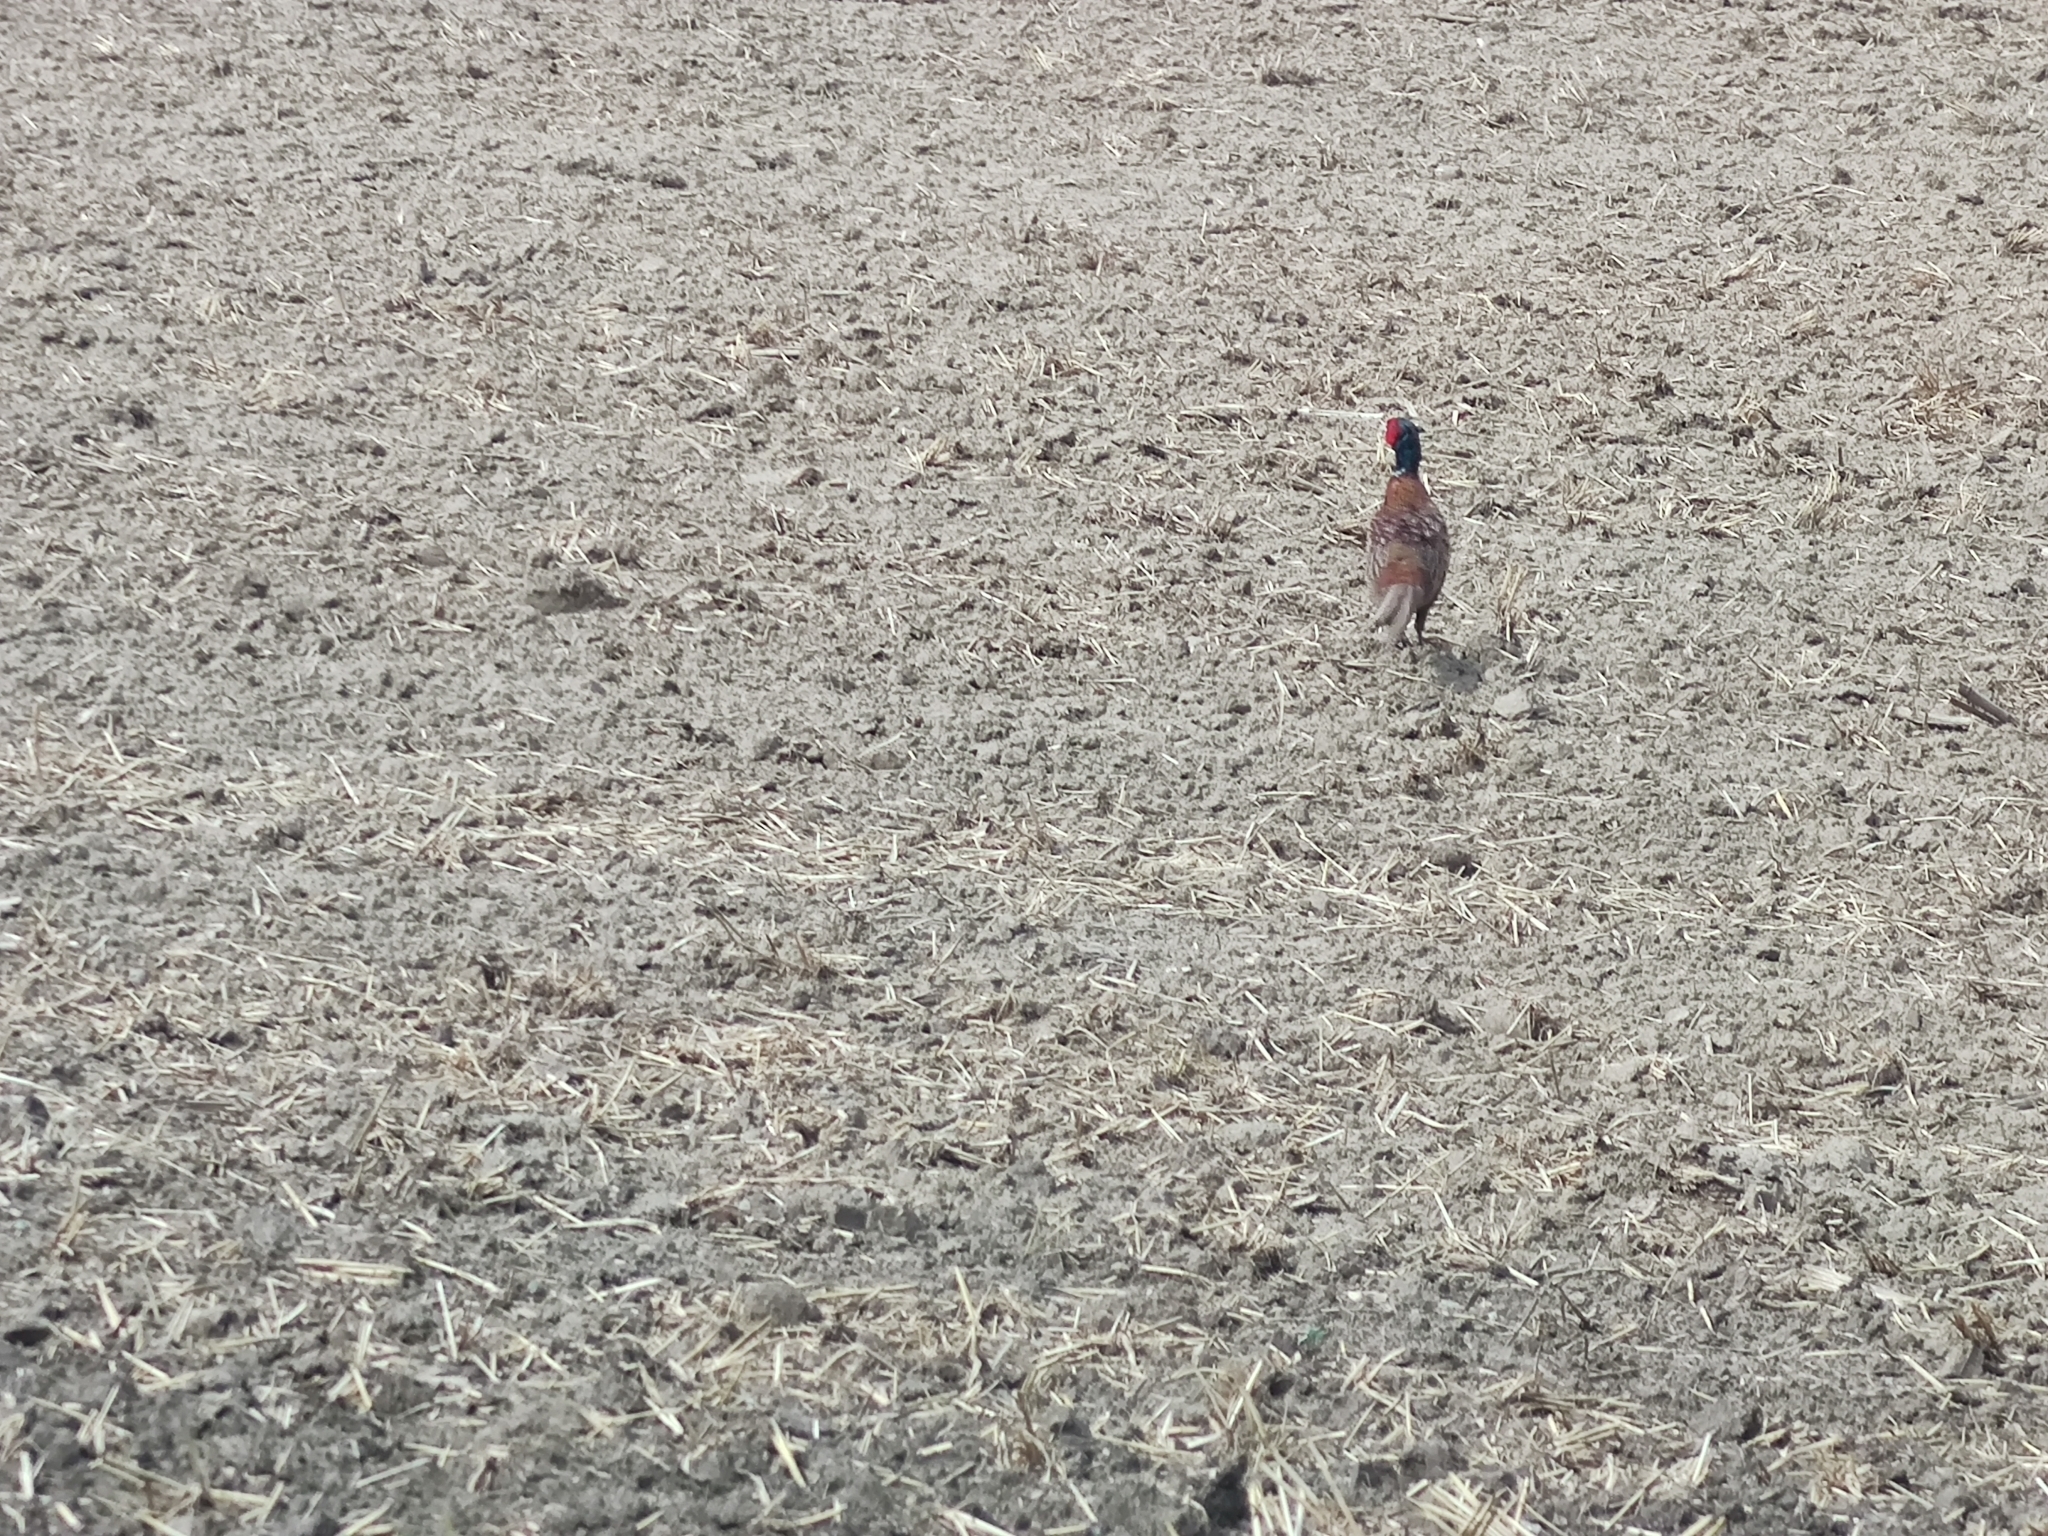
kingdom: Animalia
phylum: Chordata
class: Aves
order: Galliformes
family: Phasianidae
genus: Phasianus
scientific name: Phasianus colchicus
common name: Common pheasant
